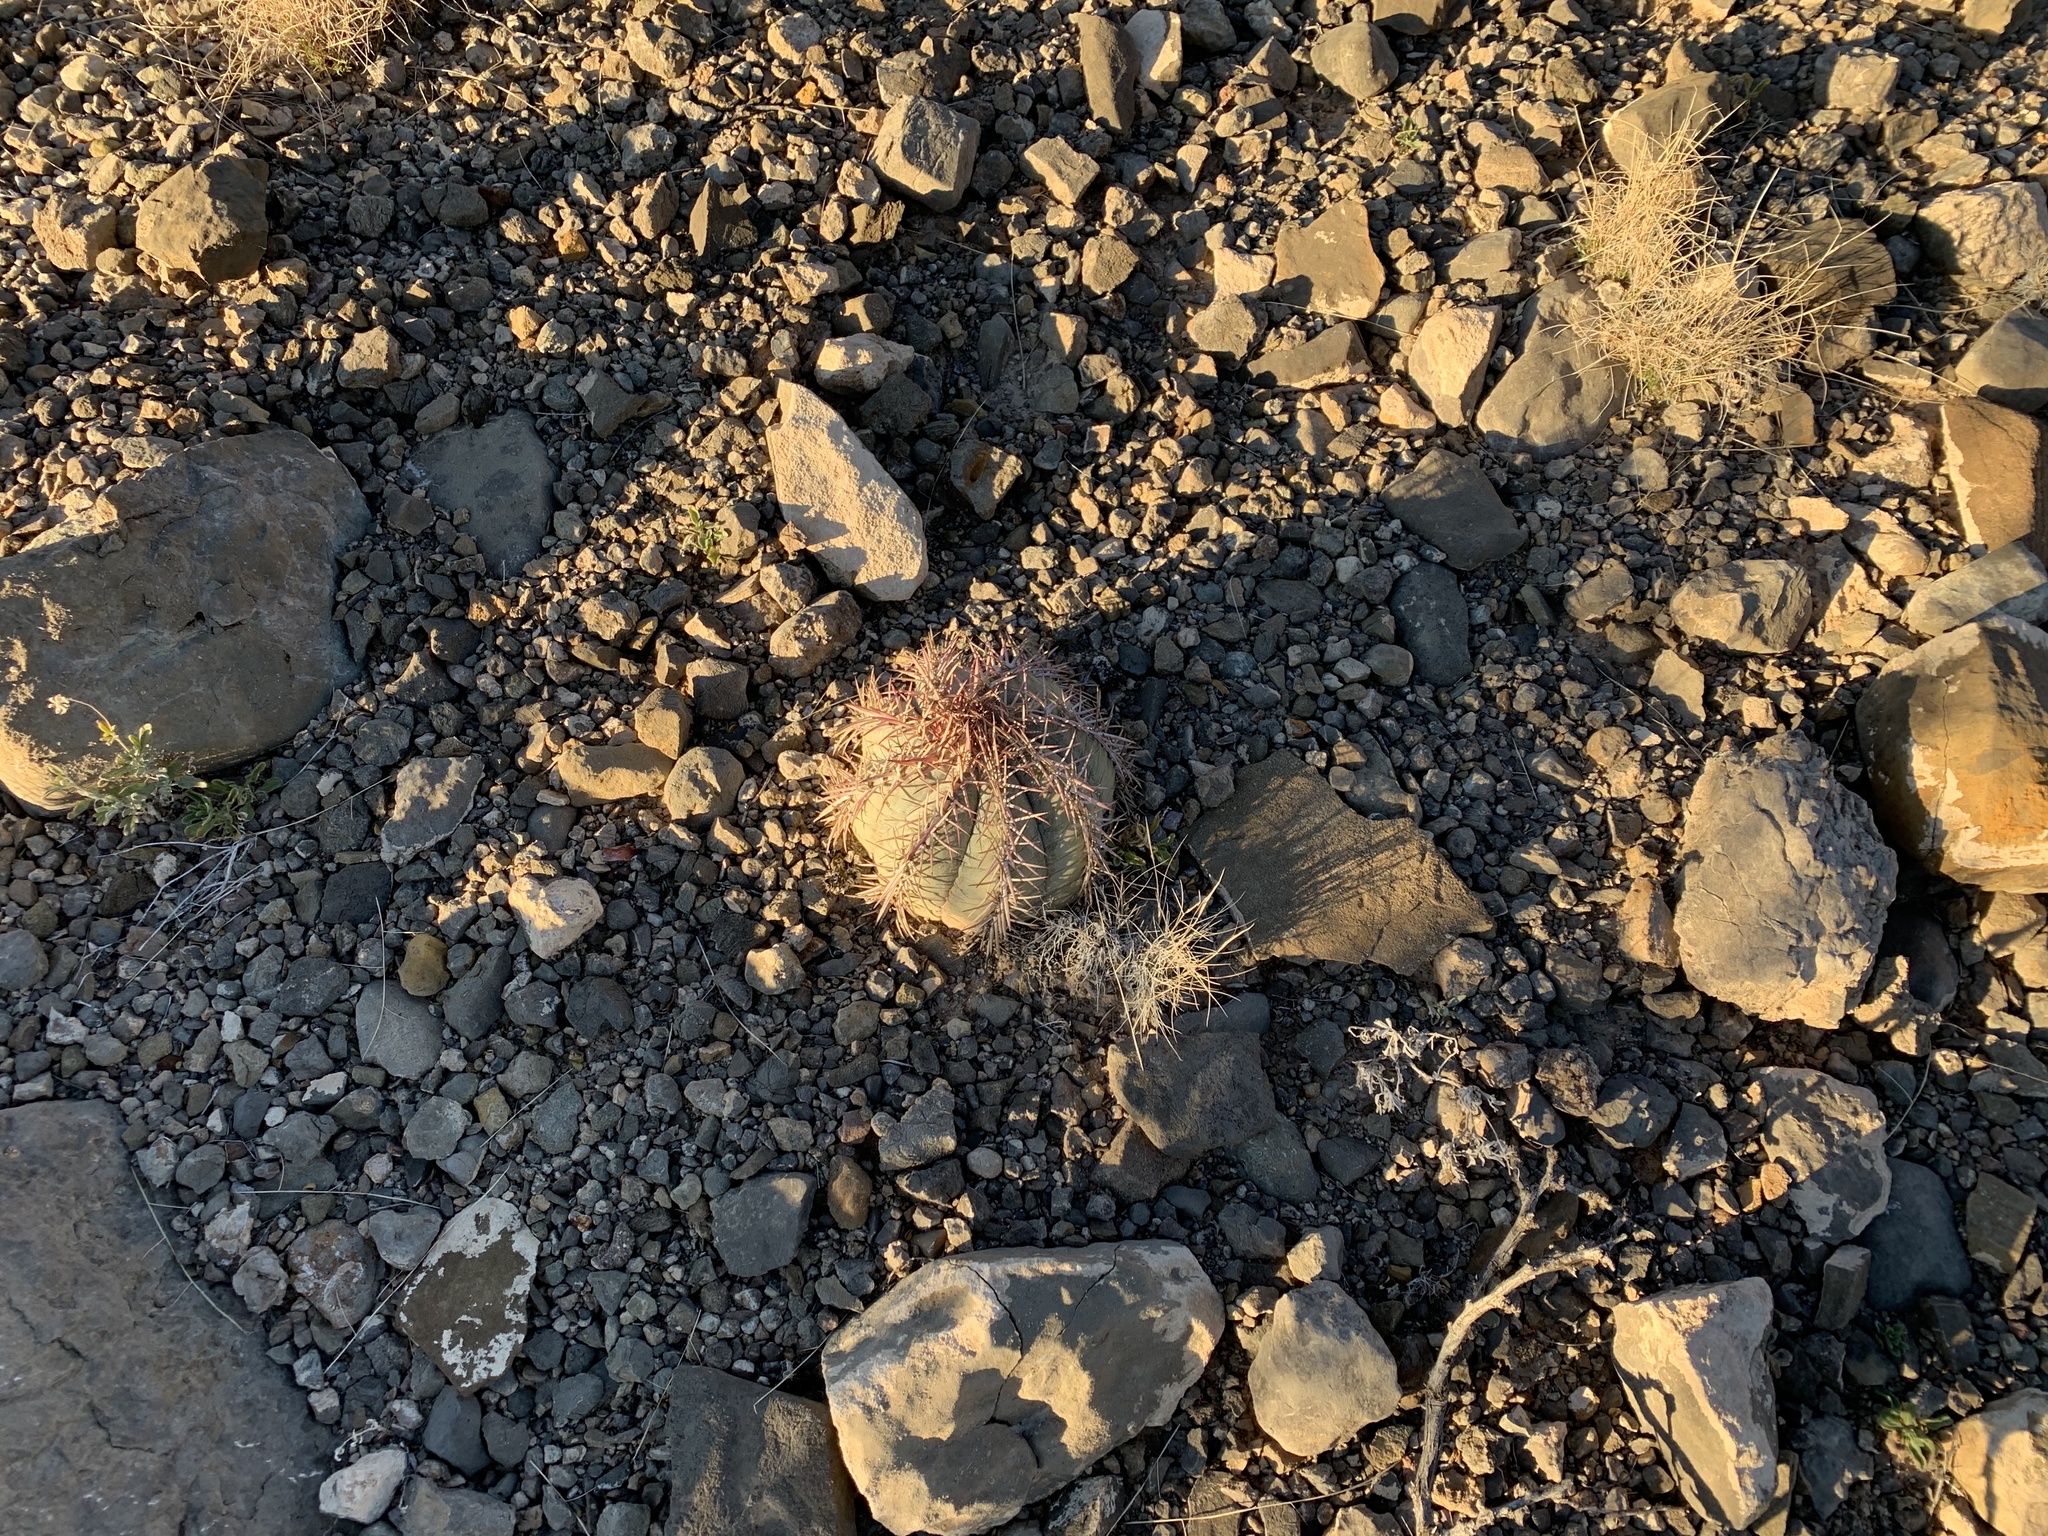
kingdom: Plantae
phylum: Tracheophyta
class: Magnoliopsida
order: Caryophyllales
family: Cactaceae
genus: Echinocactus
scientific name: Echinocactus horizonthalonius
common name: Devilshead
